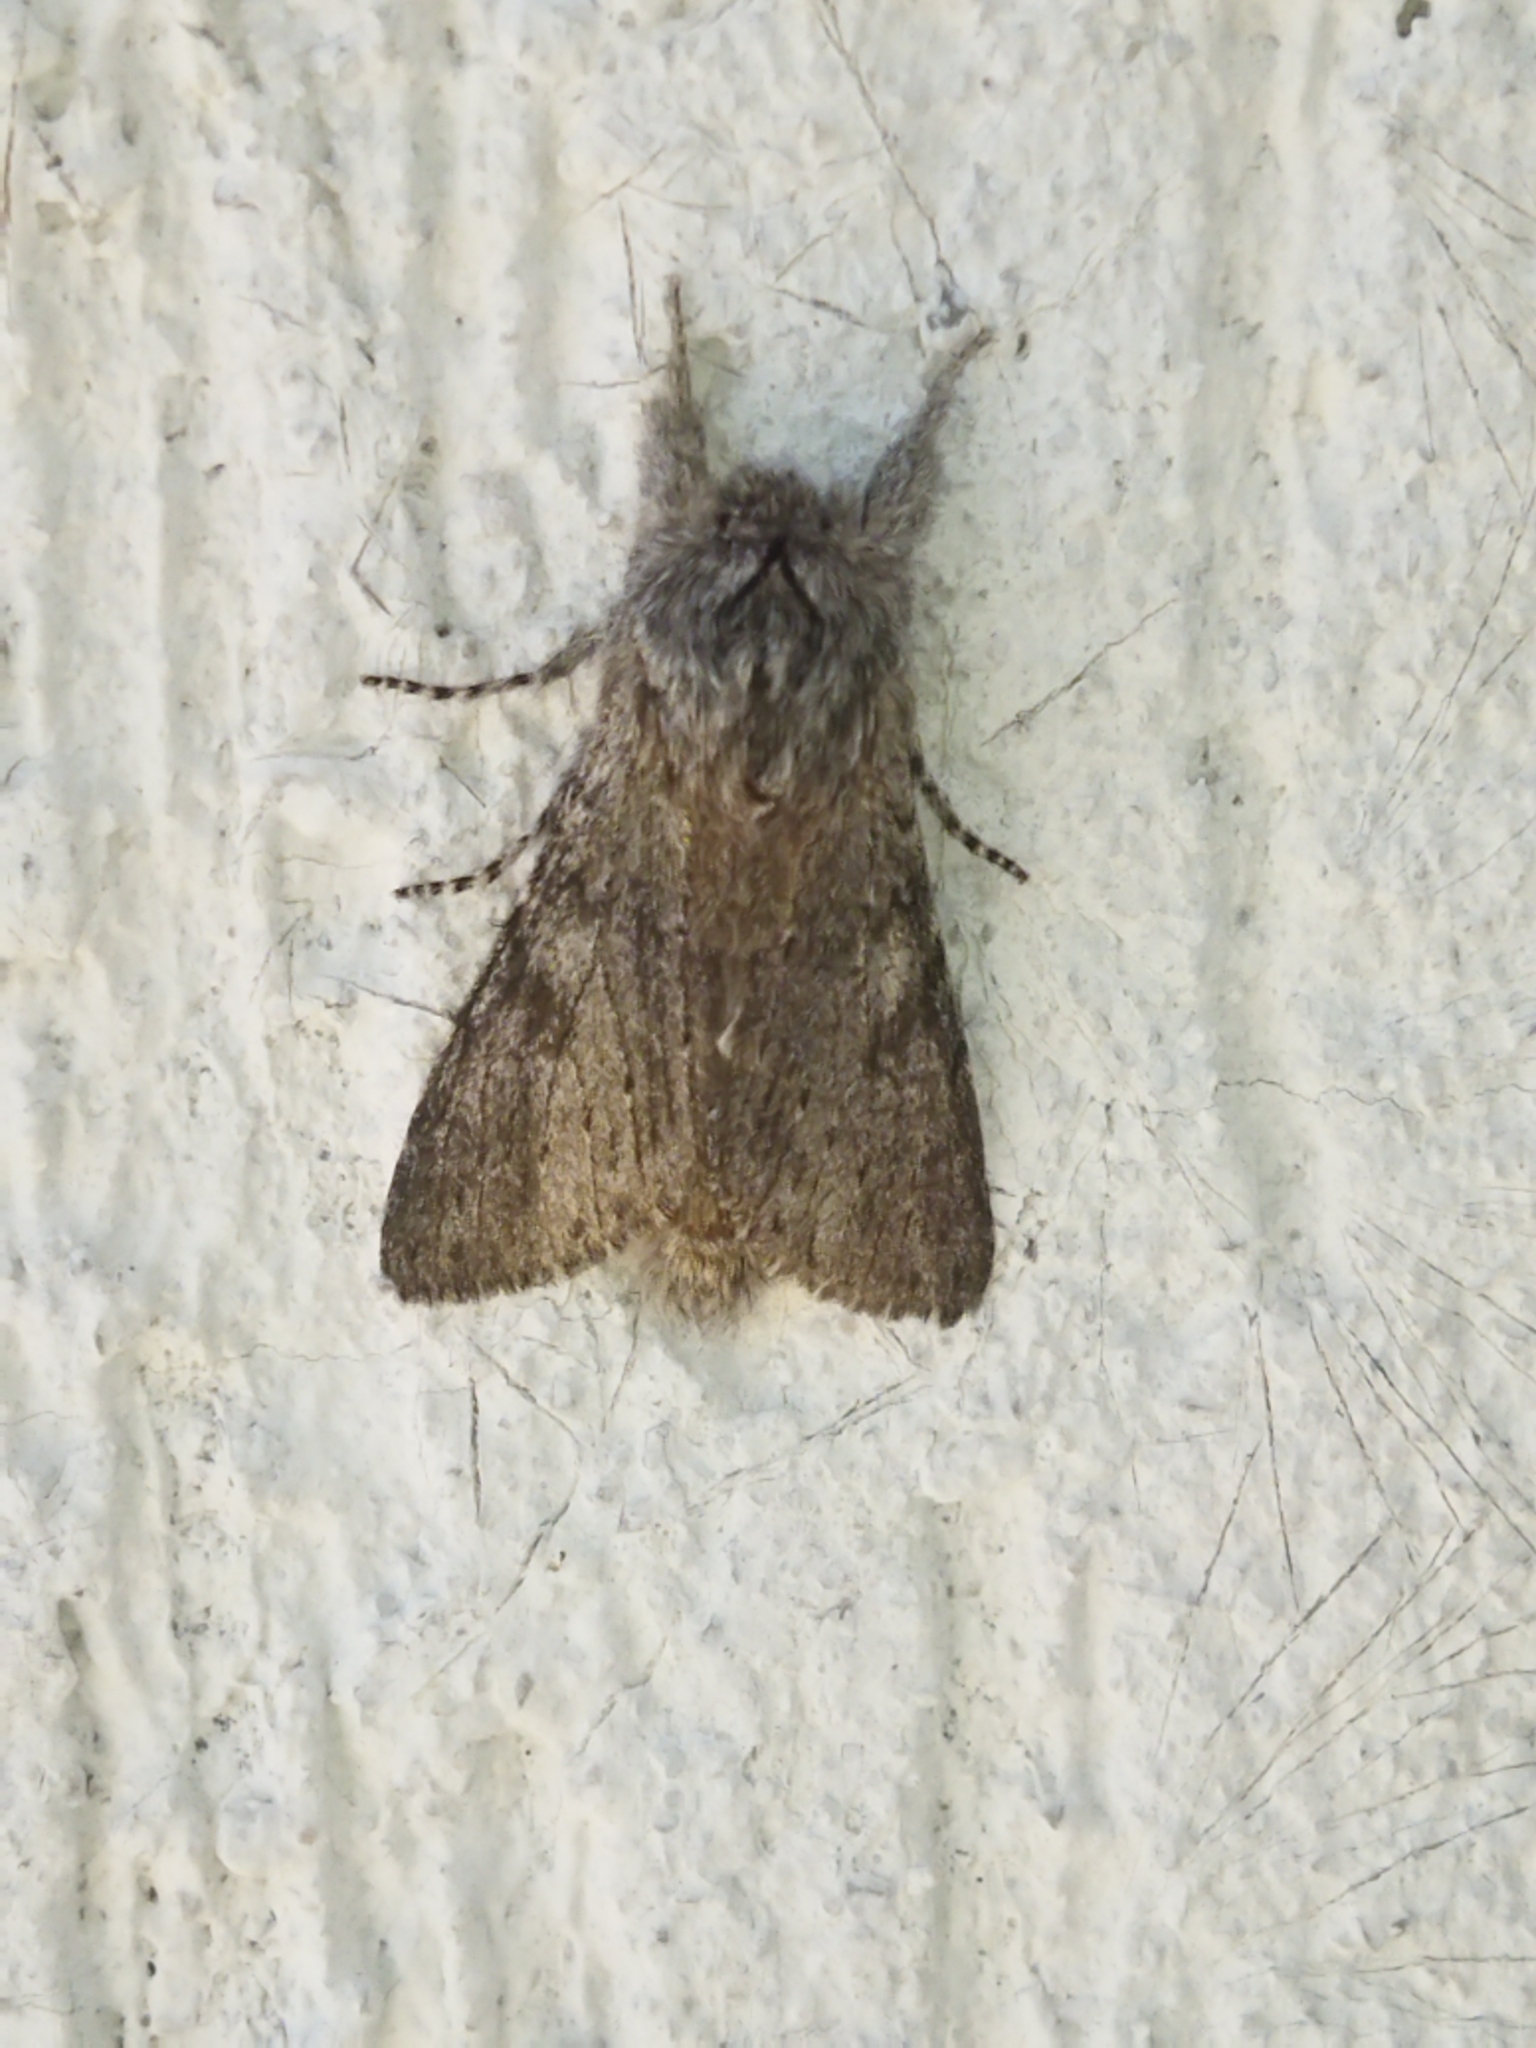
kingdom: Animalia
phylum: Arthropoda
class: Insecta
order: Lepidoptera
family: Notodontidae
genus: Dicranura
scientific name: Dicranura ulmi
